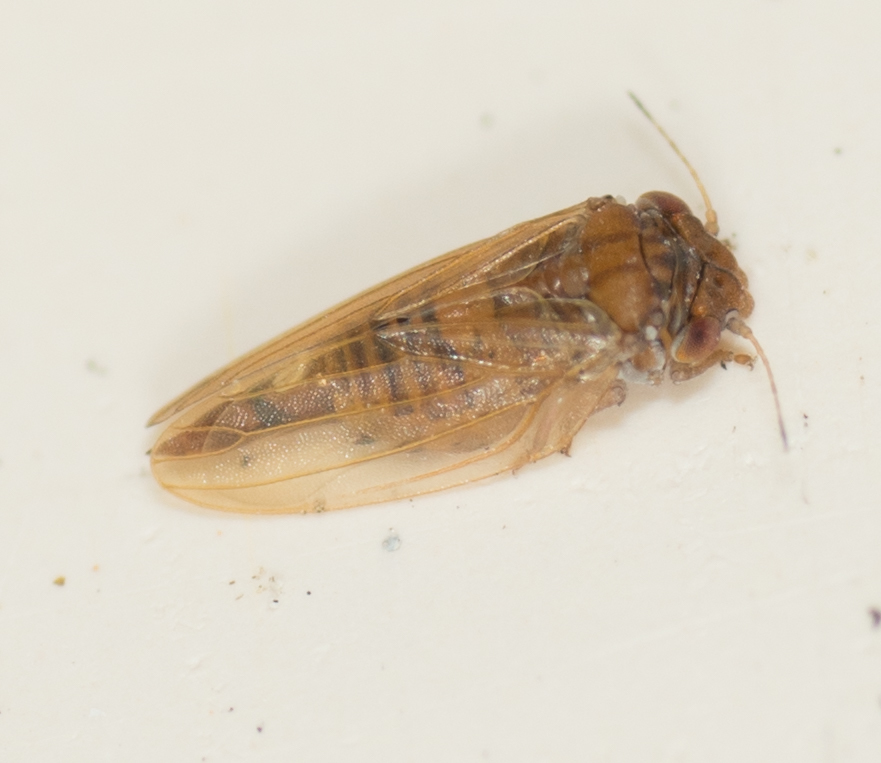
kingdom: Animalia
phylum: Arthropoda
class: Insecta
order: Hemiptera
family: Aphalaridae
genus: Ctenarytaina
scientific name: Ctenarytaina longicauda
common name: Tristania psyllid
